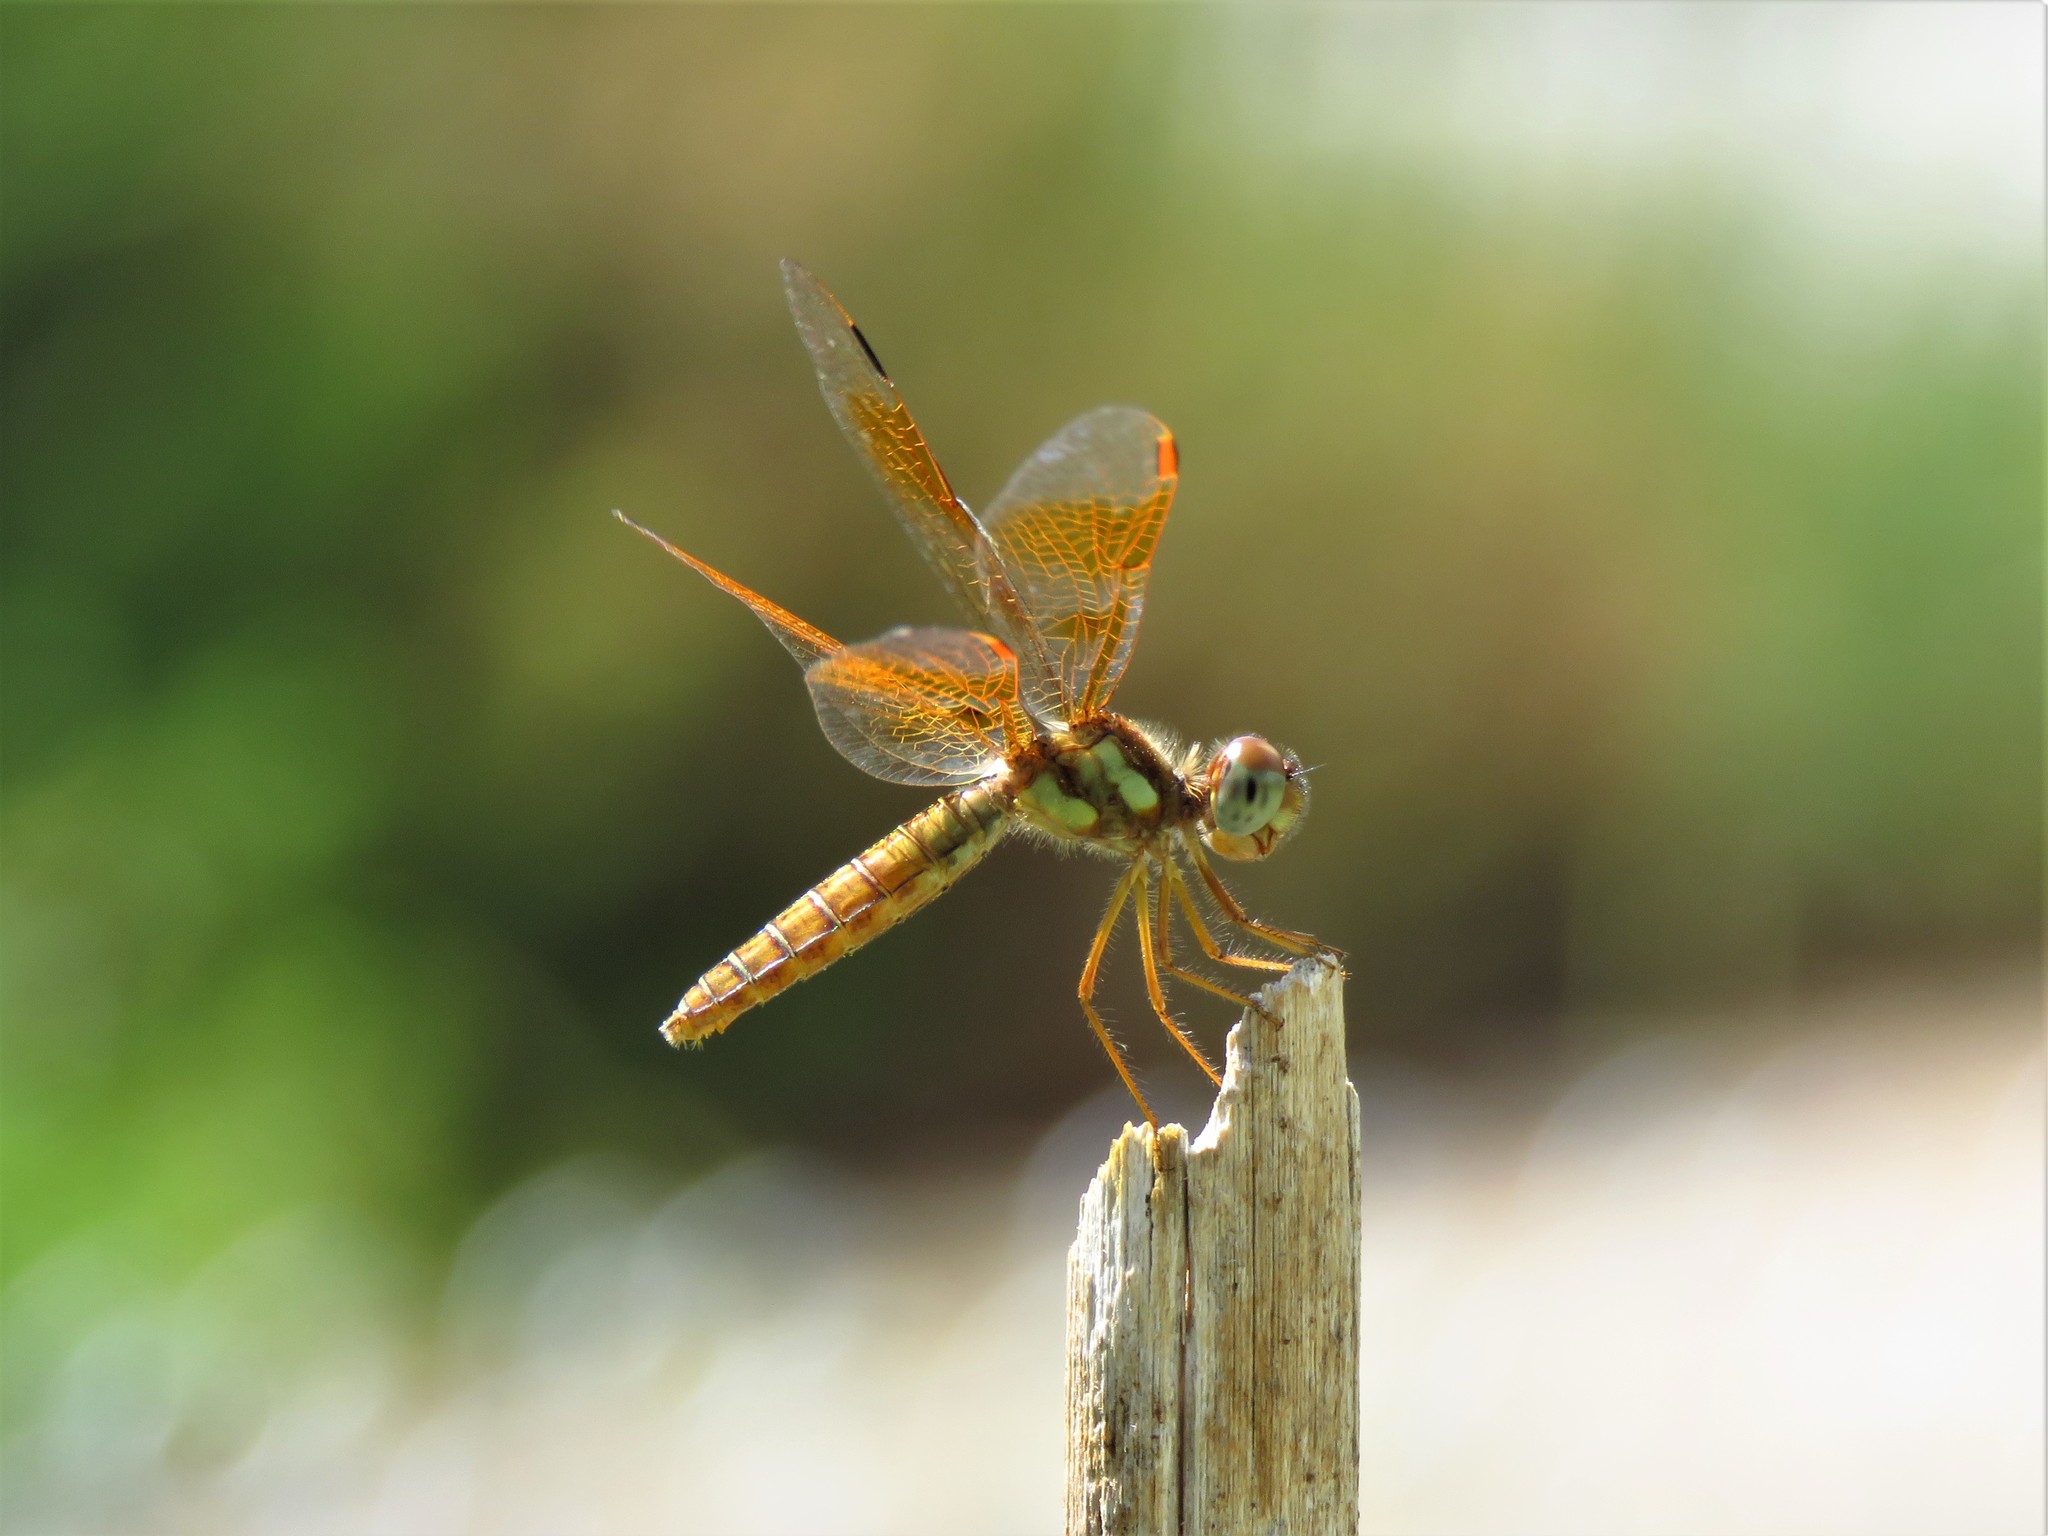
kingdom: Animalia
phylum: Arthropoda
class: Insecta
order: Odonata
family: Libellulidae
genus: Perithemis
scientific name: Perithemis tenera
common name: Eastern amberwing
